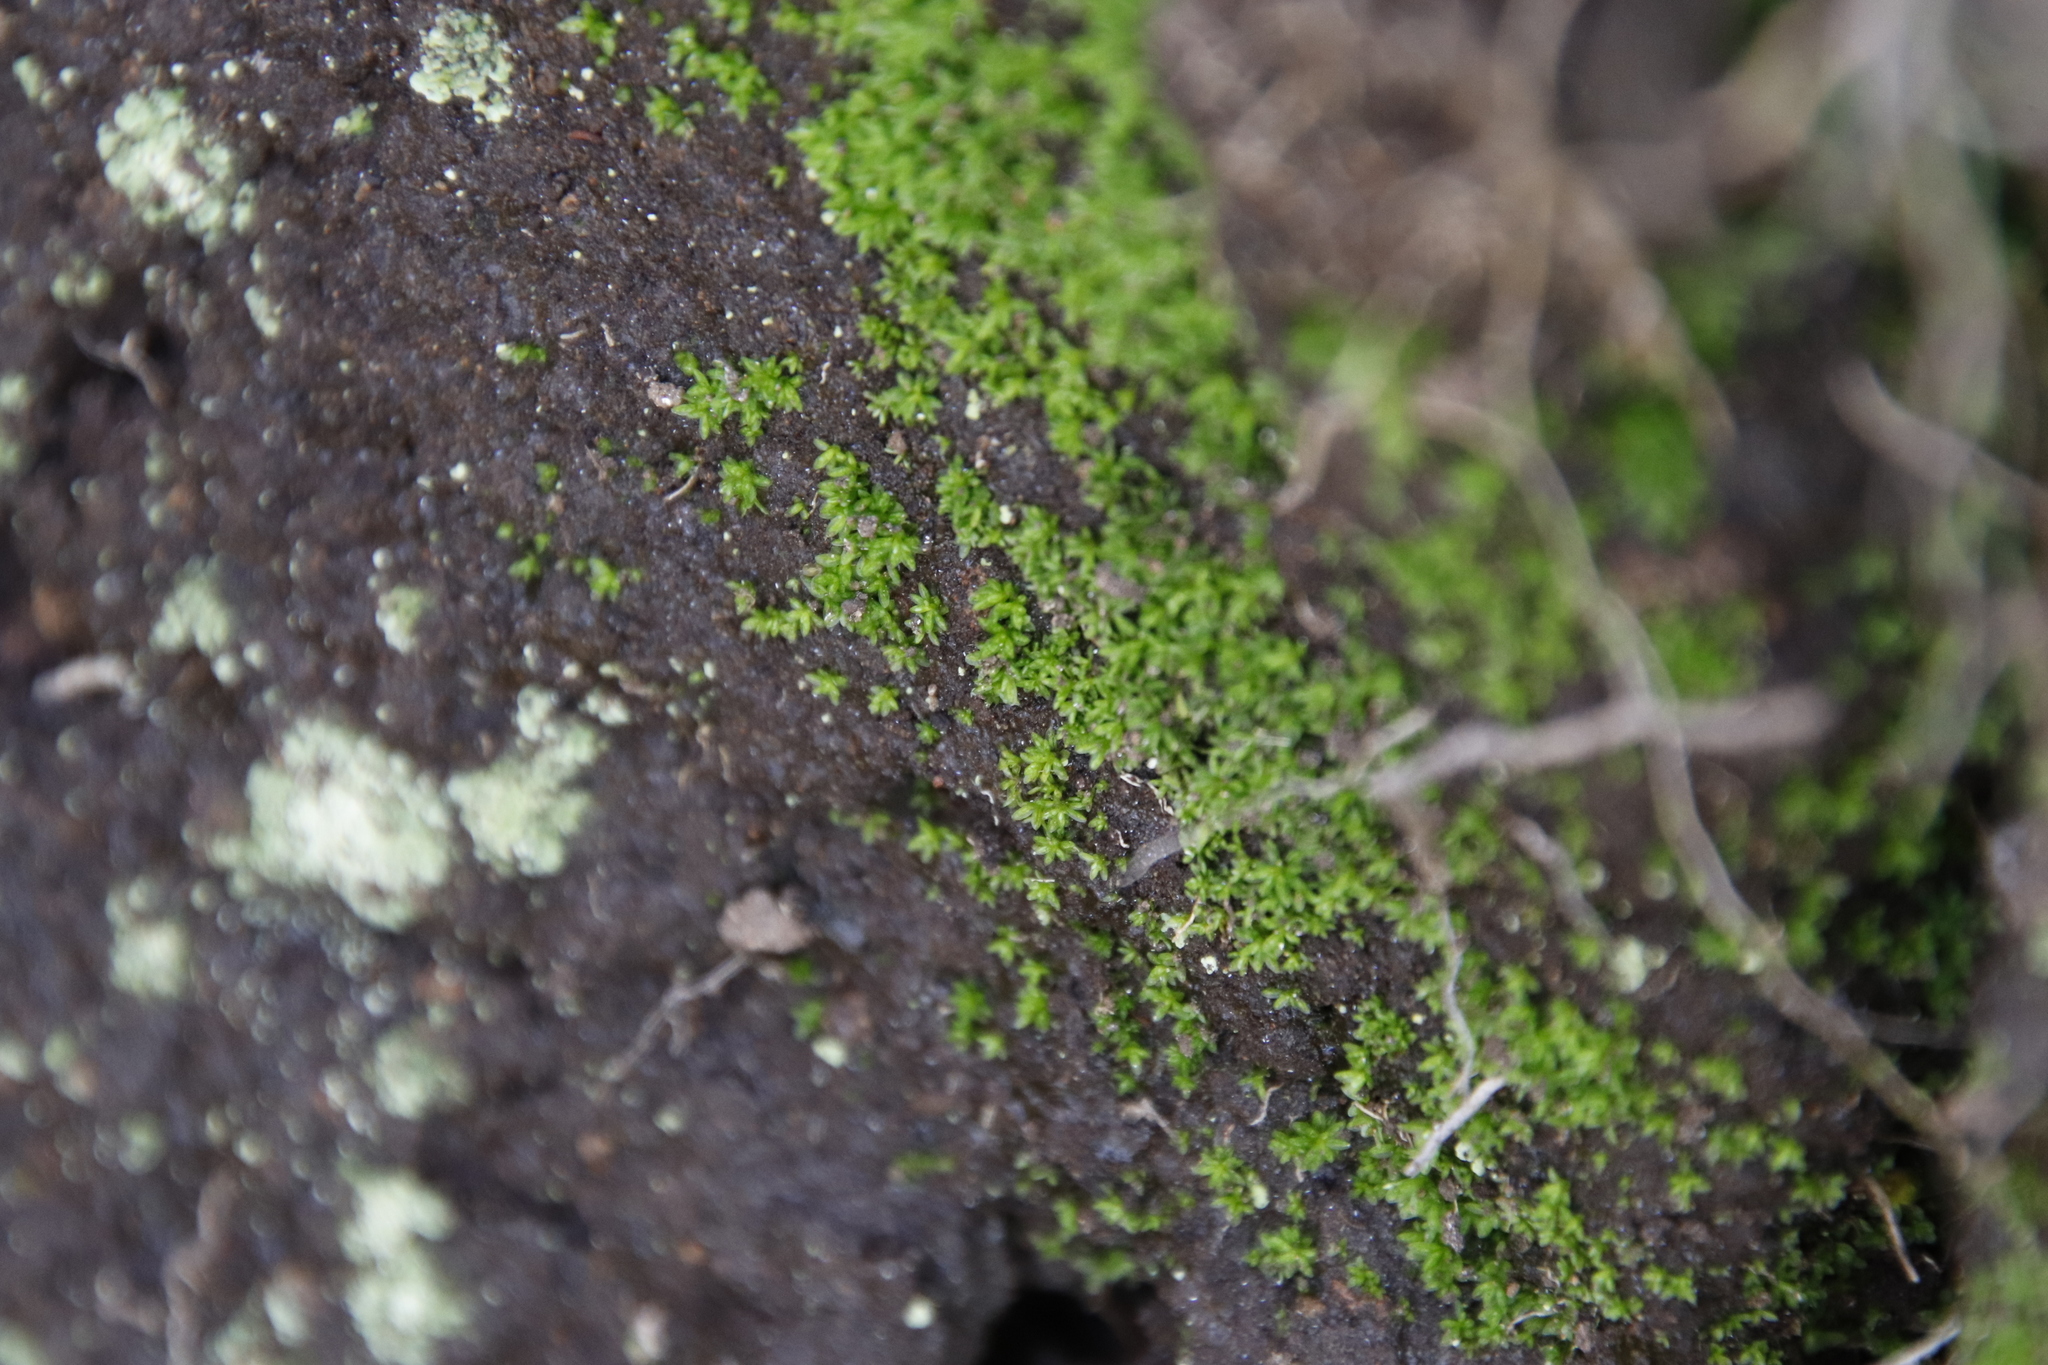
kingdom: Plantae
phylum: Bryophyta
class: Bryopsida
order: Pottiales
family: Pottiaceae
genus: Didymodon
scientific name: Didymodon tophaceopsis
